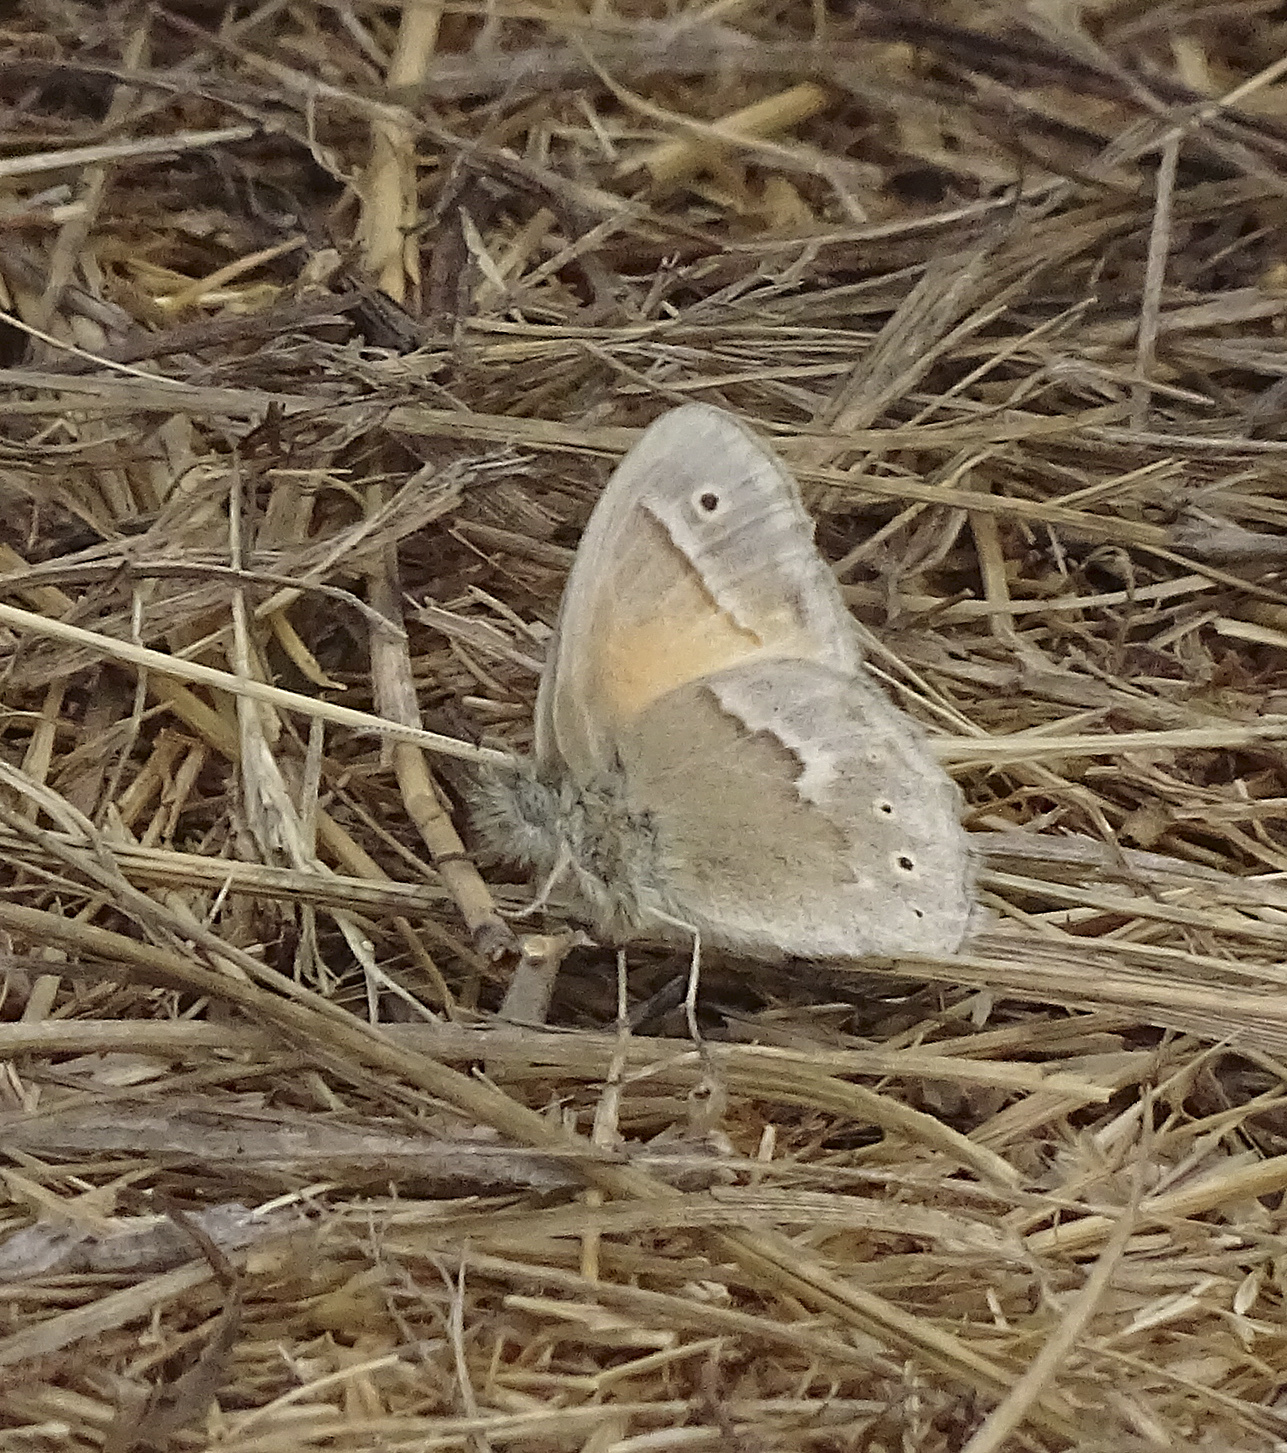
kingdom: Animalia
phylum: Arthropoda
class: Insecta
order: Lepidoptera
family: Nymphalidae
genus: Coenonympha
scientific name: Coenonympha california
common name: Common ringlet
